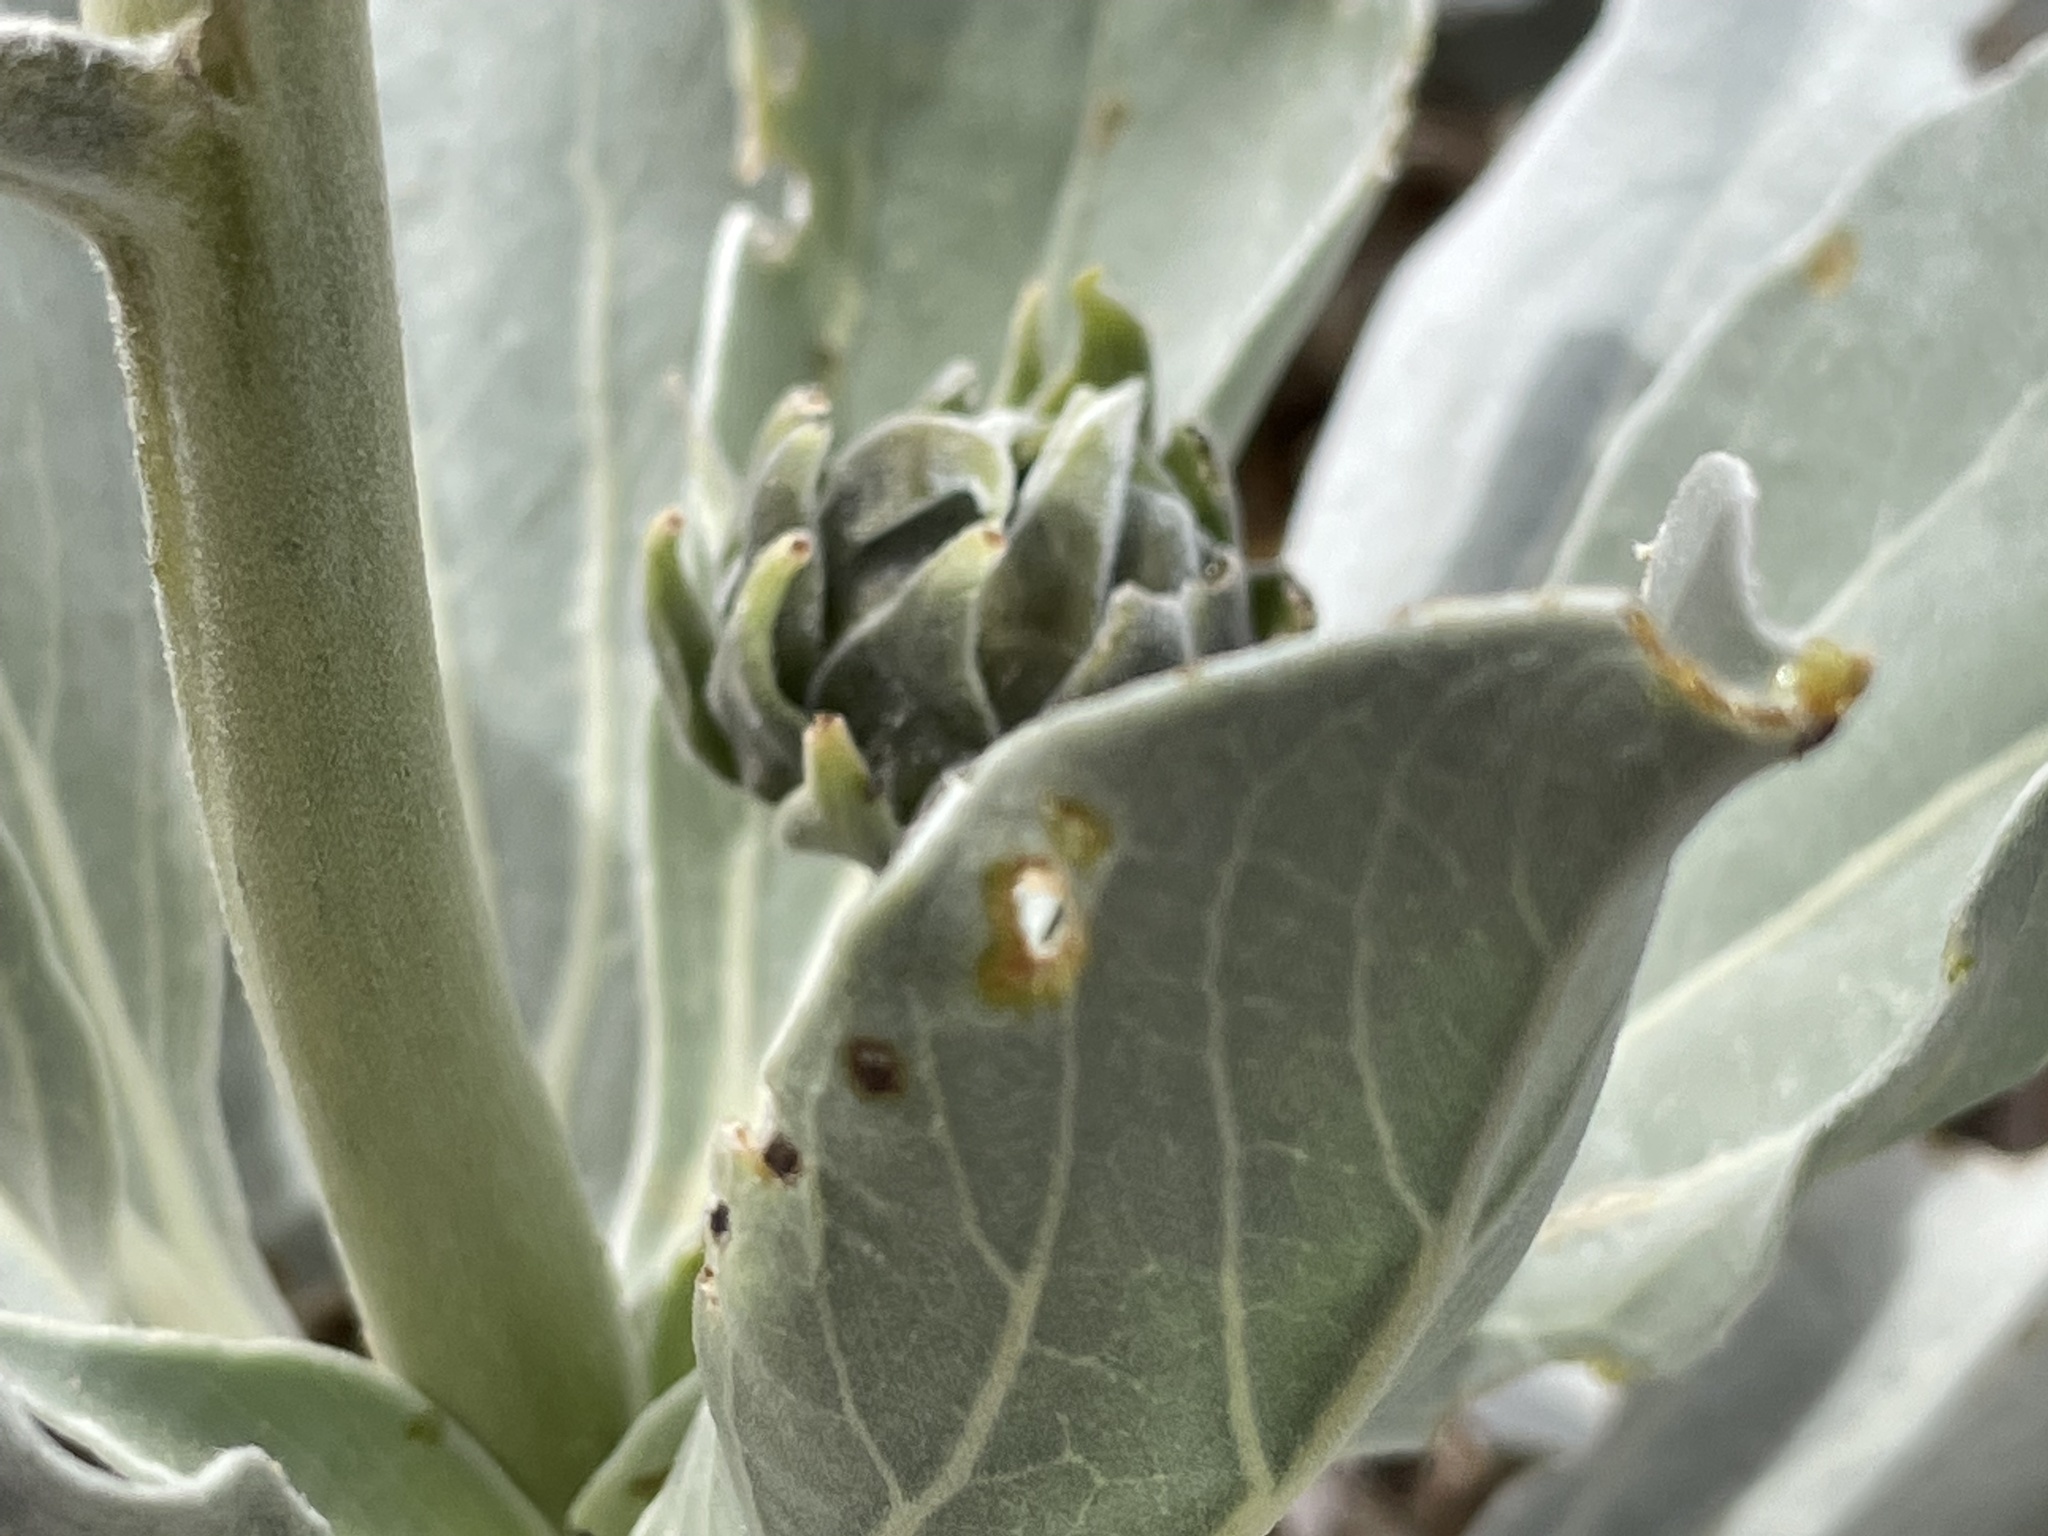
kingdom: Plantae
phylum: Tracheophyta
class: Magnoliopsida
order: Asterales
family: Asteraceae
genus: Enceliopsis
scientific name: Enceliopsis argophylla
